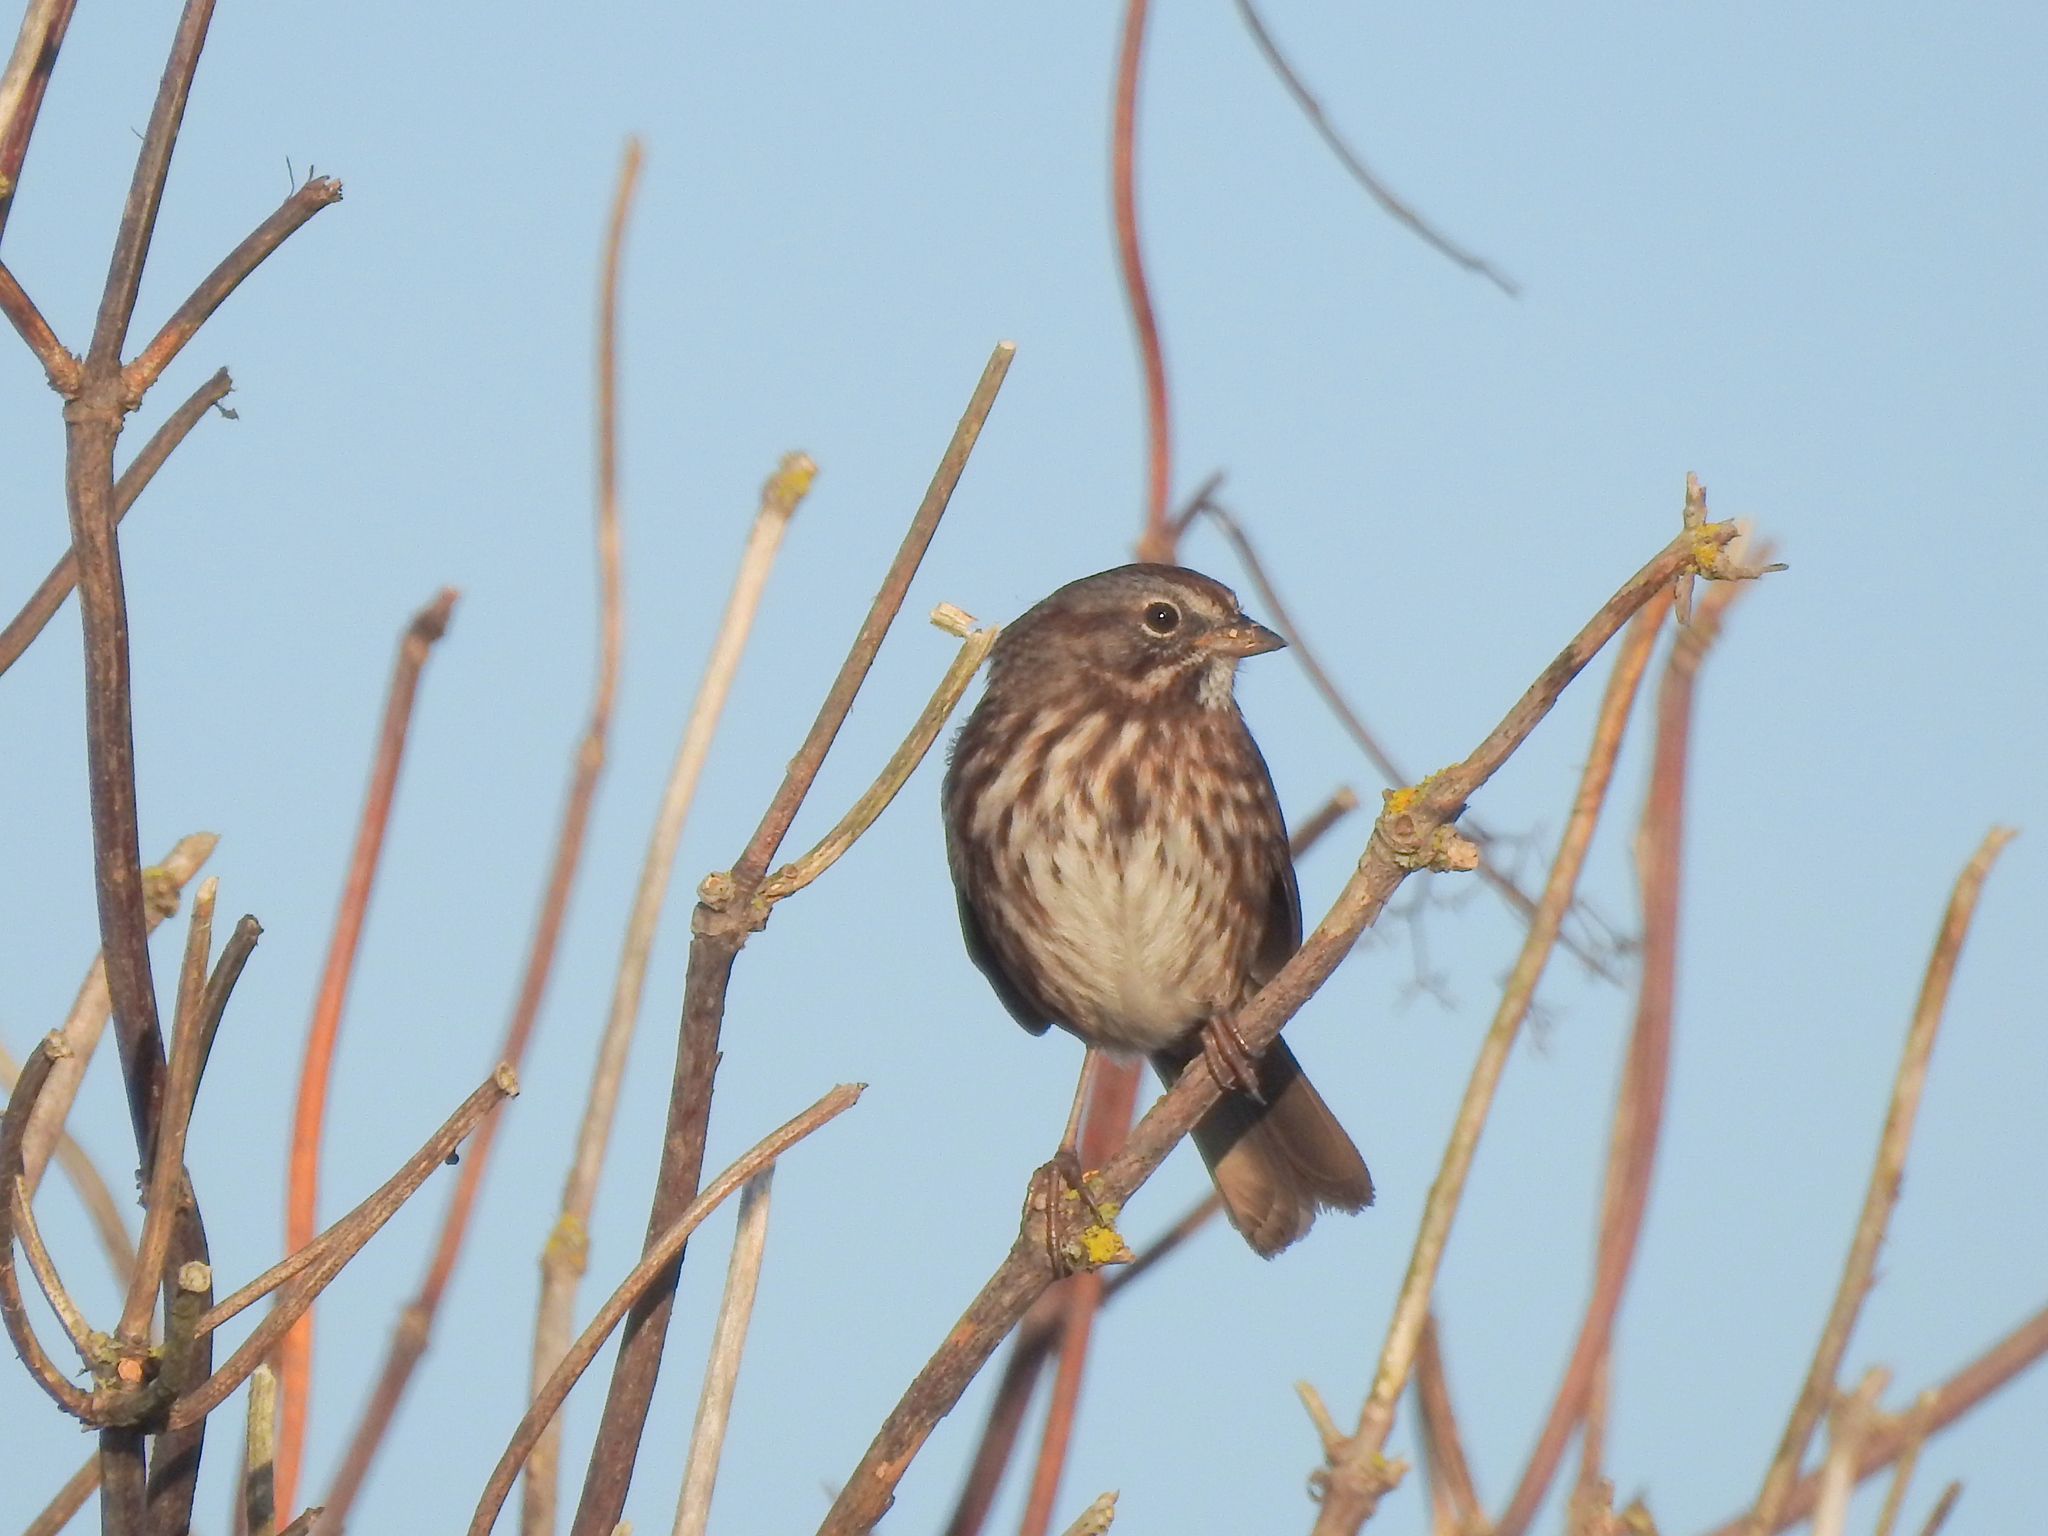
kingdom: Animalia
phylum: Chordata
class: Aves
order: Passeriformes
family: Passerellidae
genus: Melospiza
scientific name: Melospiza melodia
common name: Song sparrow
